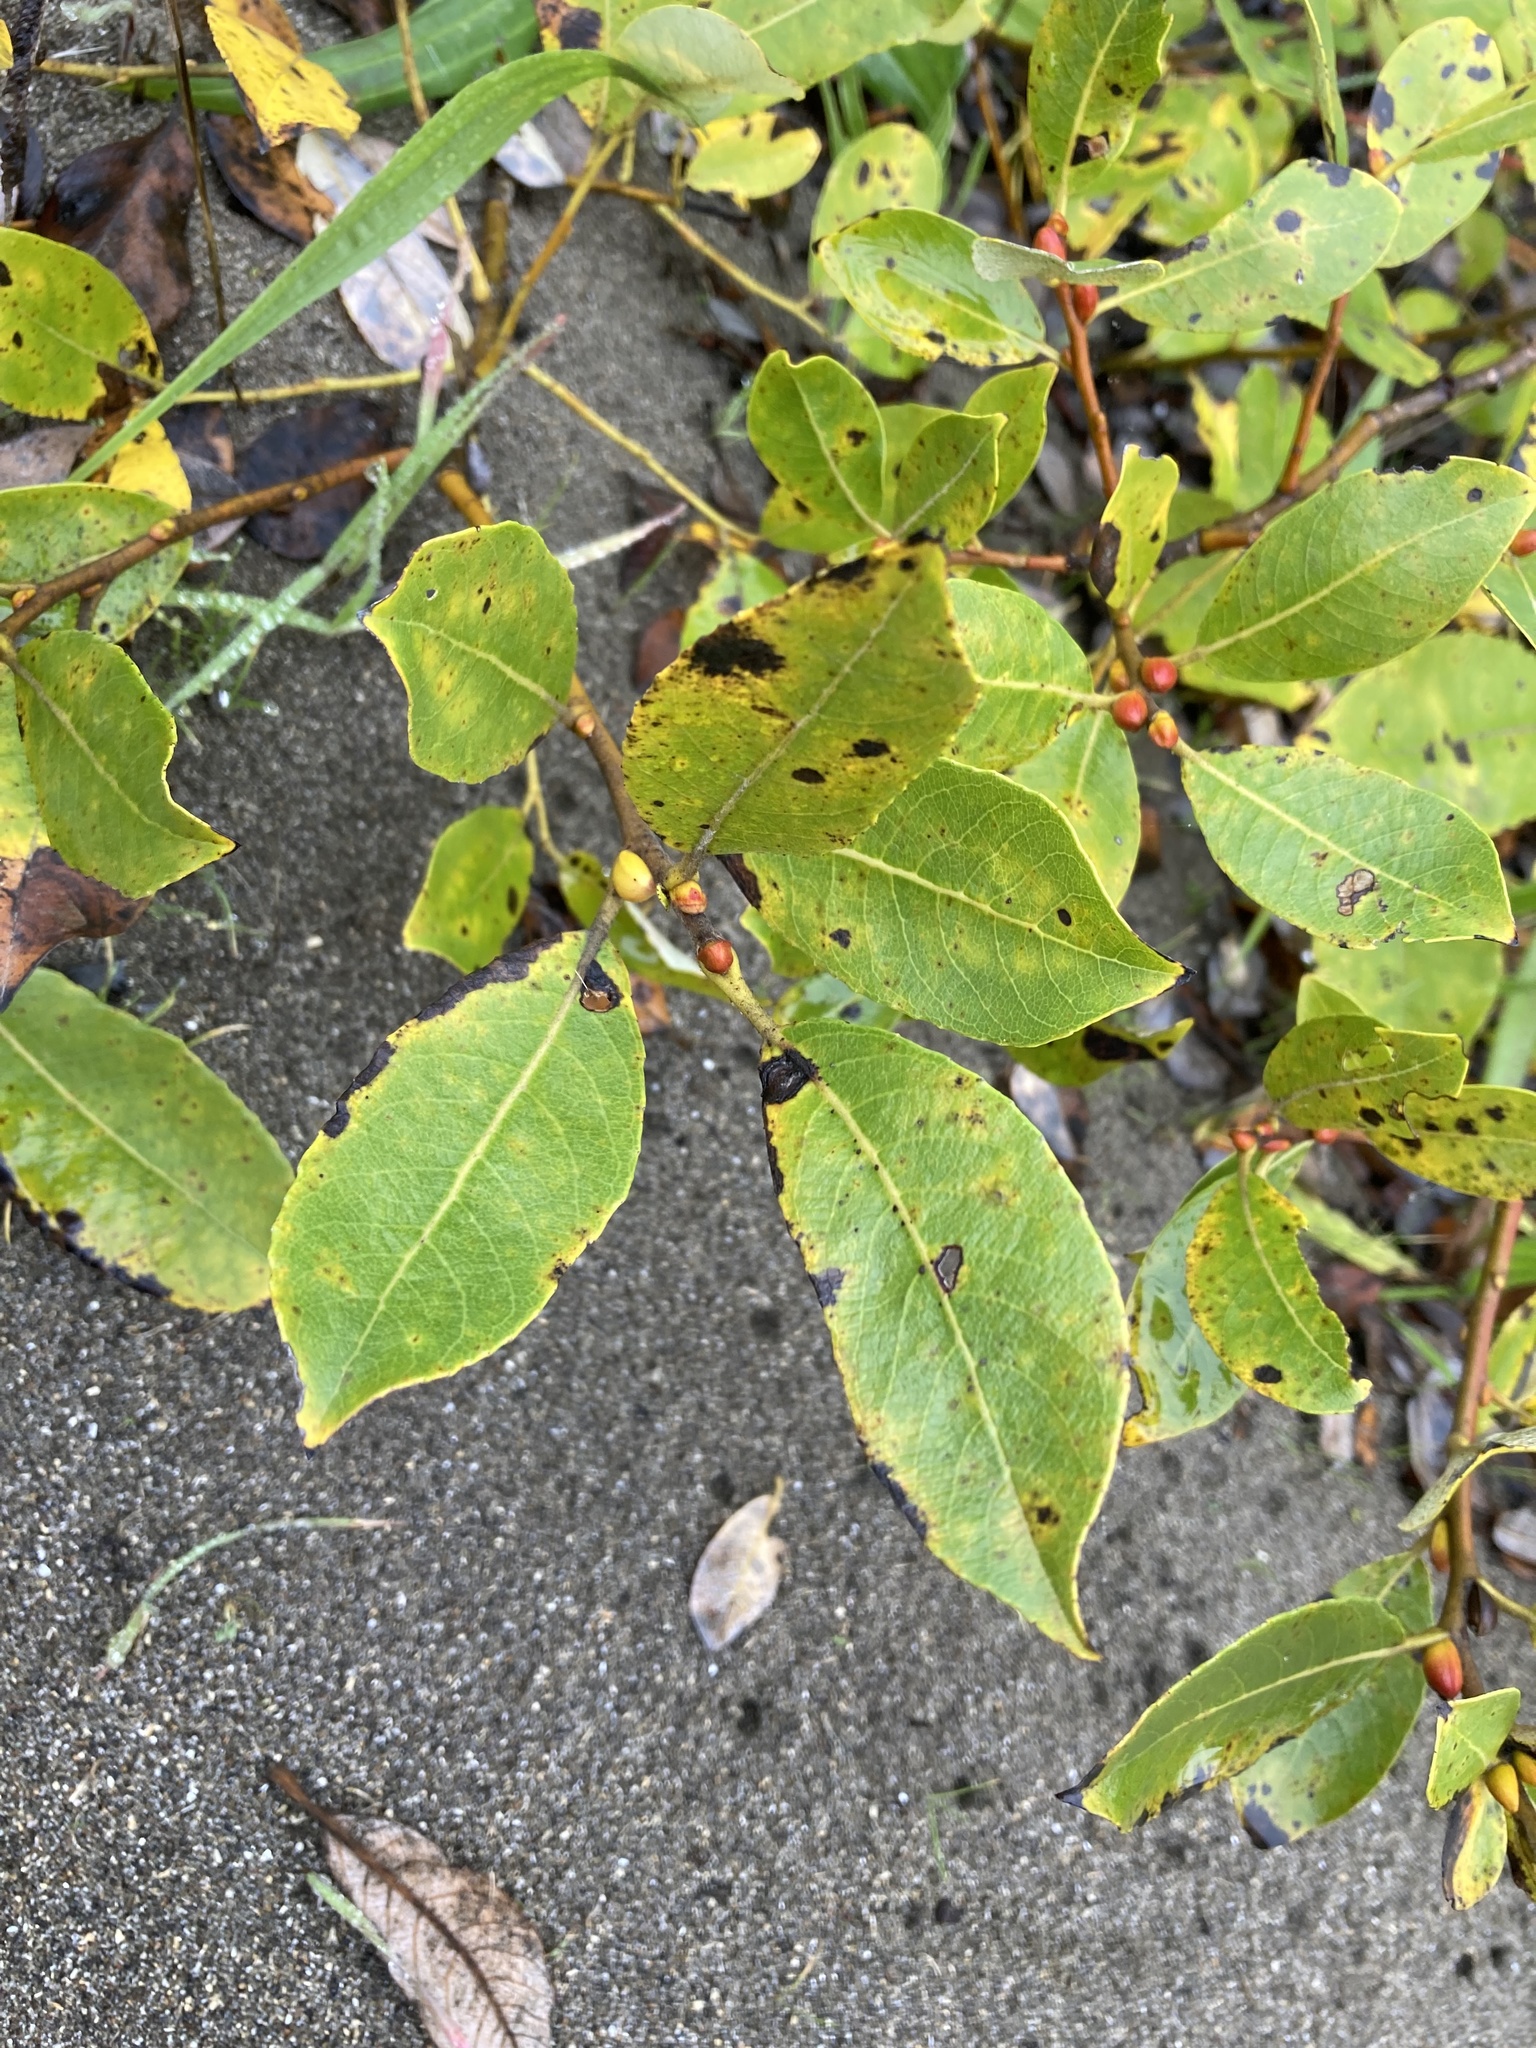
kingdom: Plantae
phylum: Tracheophyta
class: Magnoliopsida
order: Malpighiales
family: Salicaceae
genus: Salix
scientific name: Salix hookeriana
